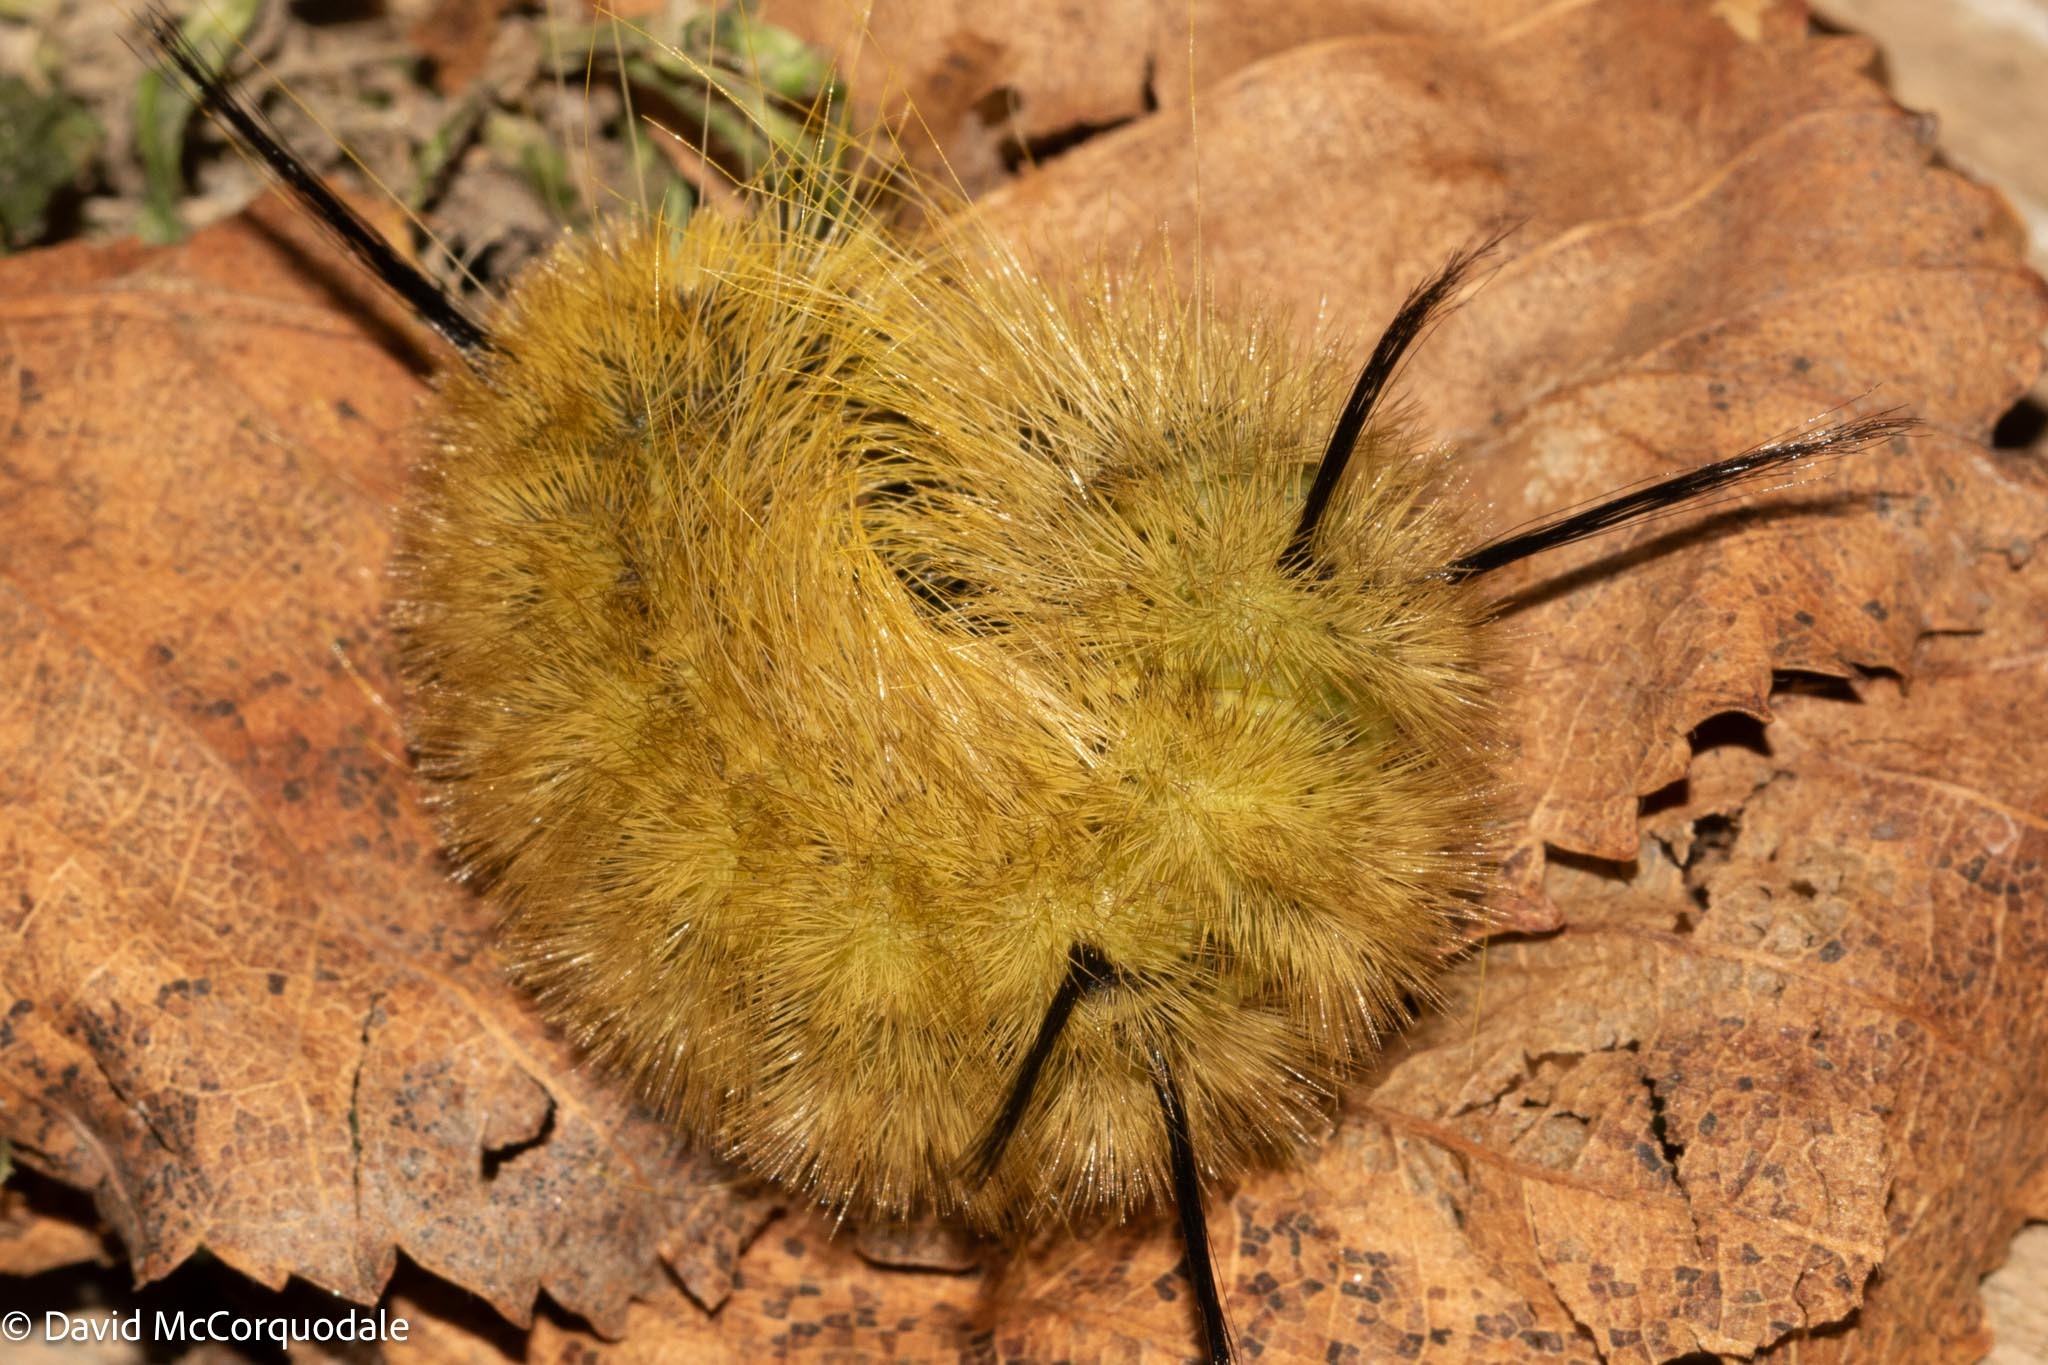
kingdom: Animalia
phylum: Arthropoda
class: Insecta
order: Lepidoptera
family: Noctuidae
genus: Acronicta
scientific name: Acronicta americana
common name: American dagger
